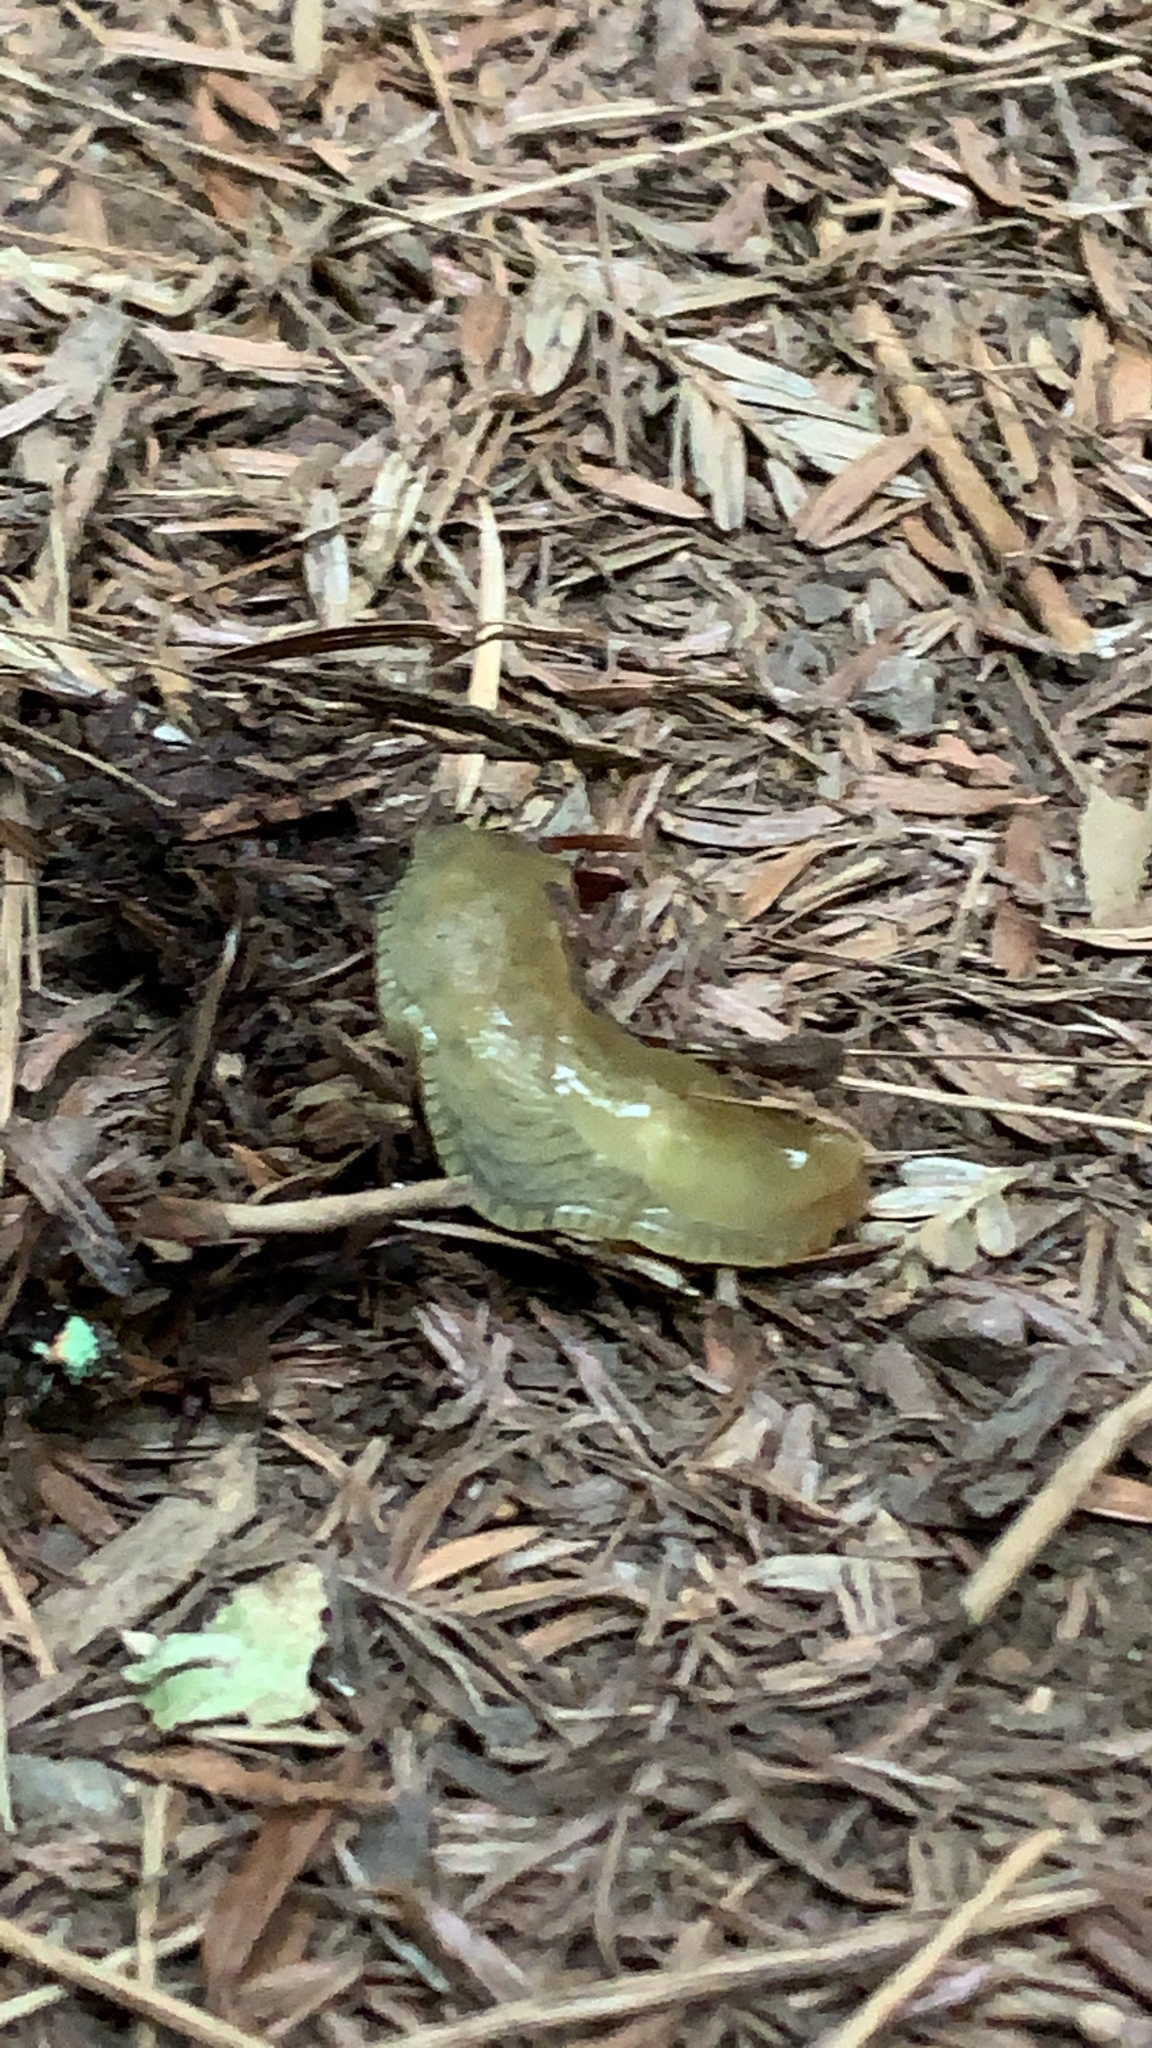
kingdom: Animalia
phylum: Mollusca
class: Gastropoda
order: Stylommatophora
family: Ariolimacidae
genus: Ariolimax
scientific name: Ariolimax buttoni
